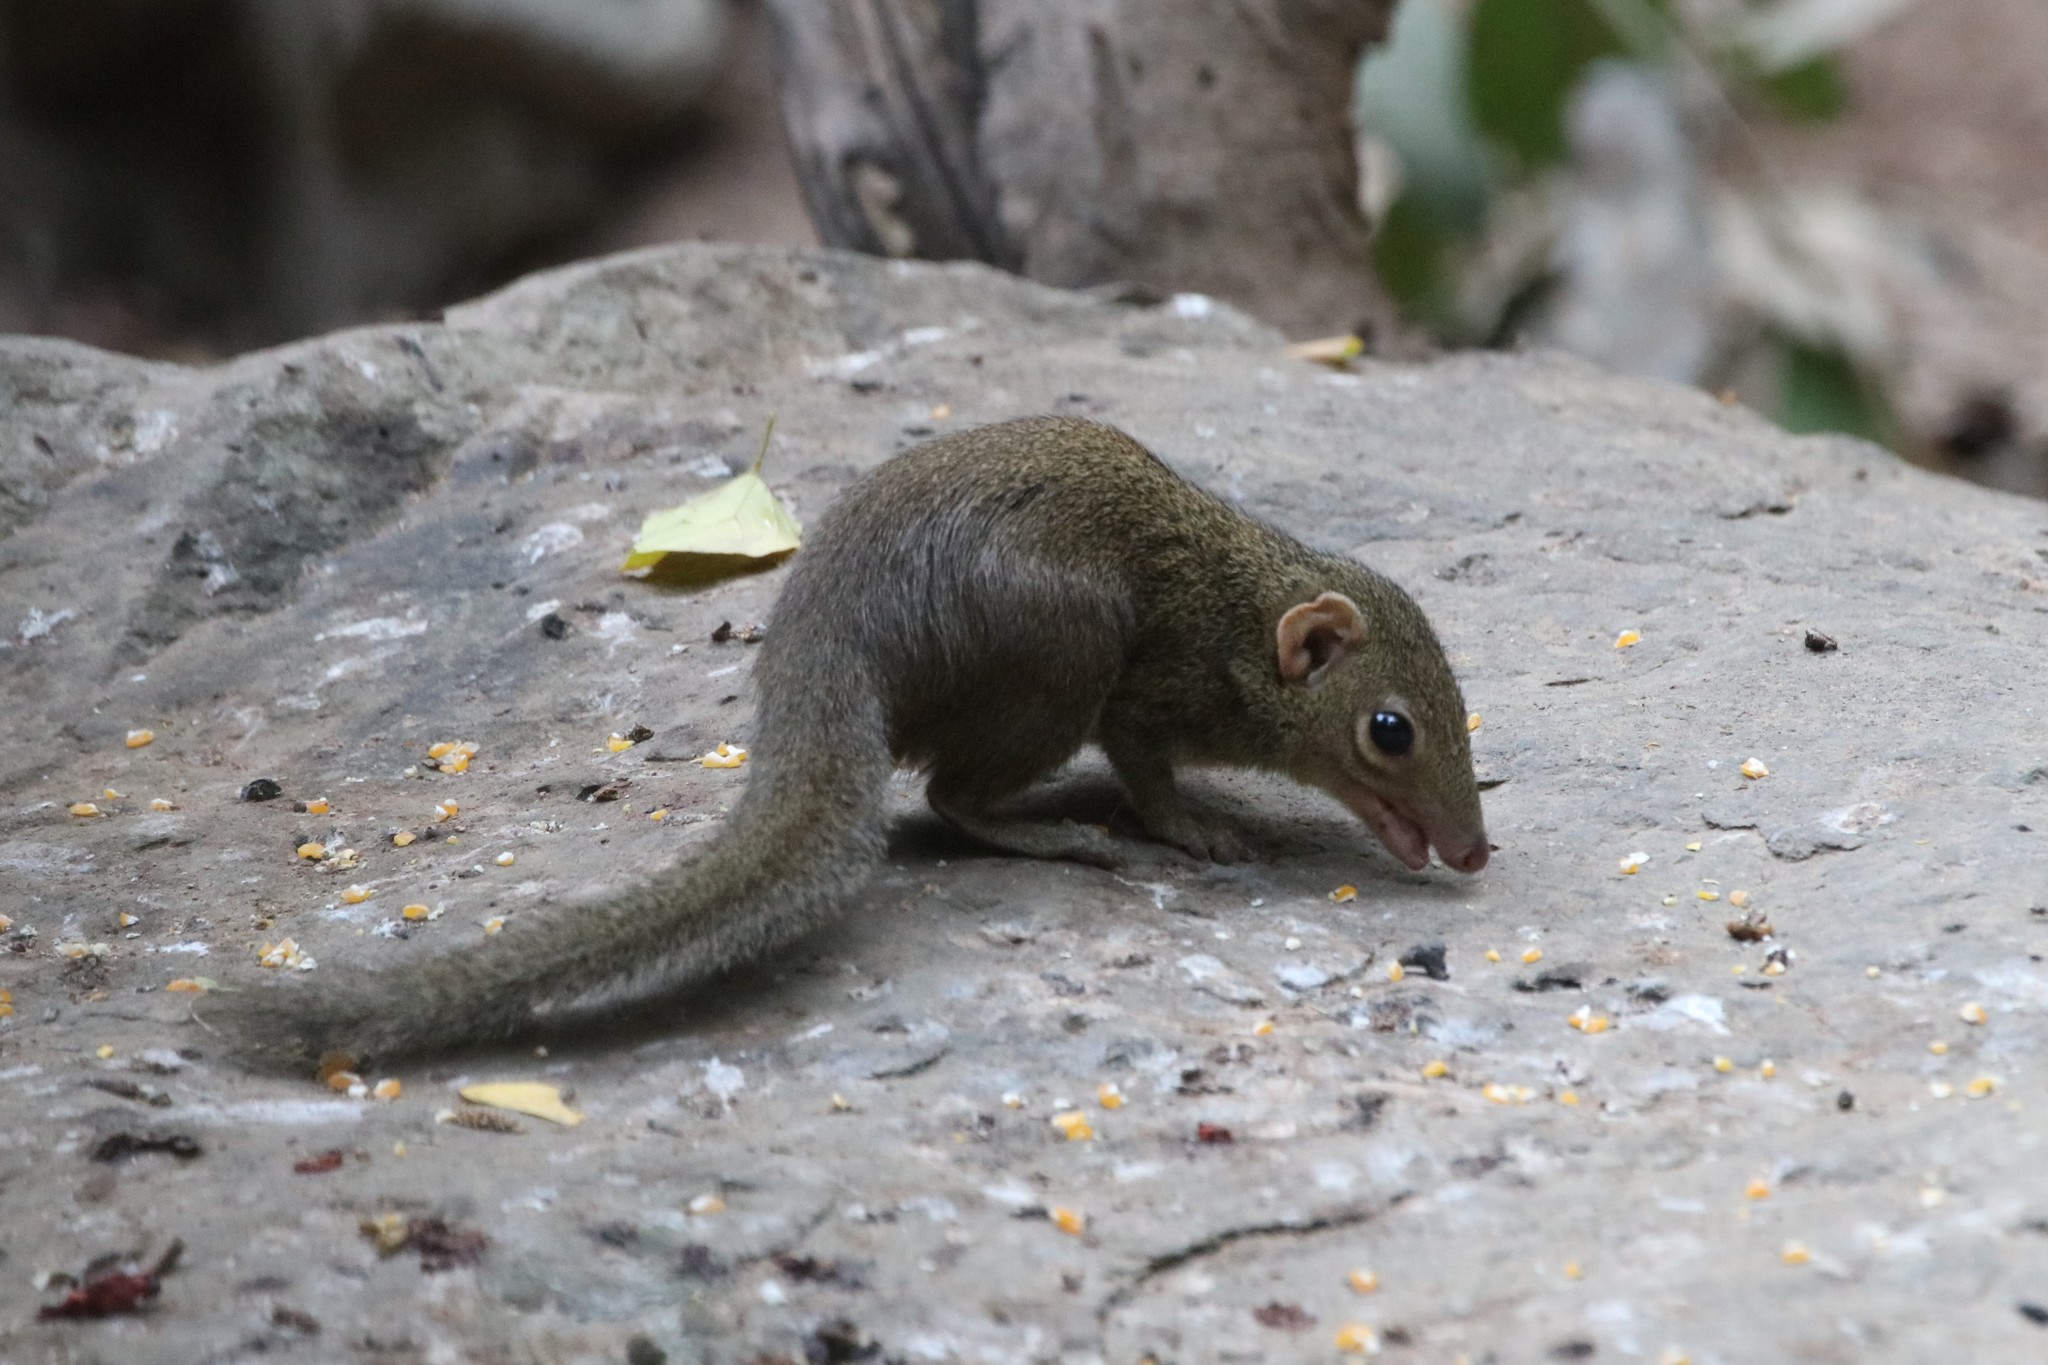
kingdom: Animalia
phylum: Chordata
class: Mammalia
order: Scandentia
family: Tupaiidae
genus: Tupaia
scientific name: Tupaia belangeri
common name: Northern treeshrew
